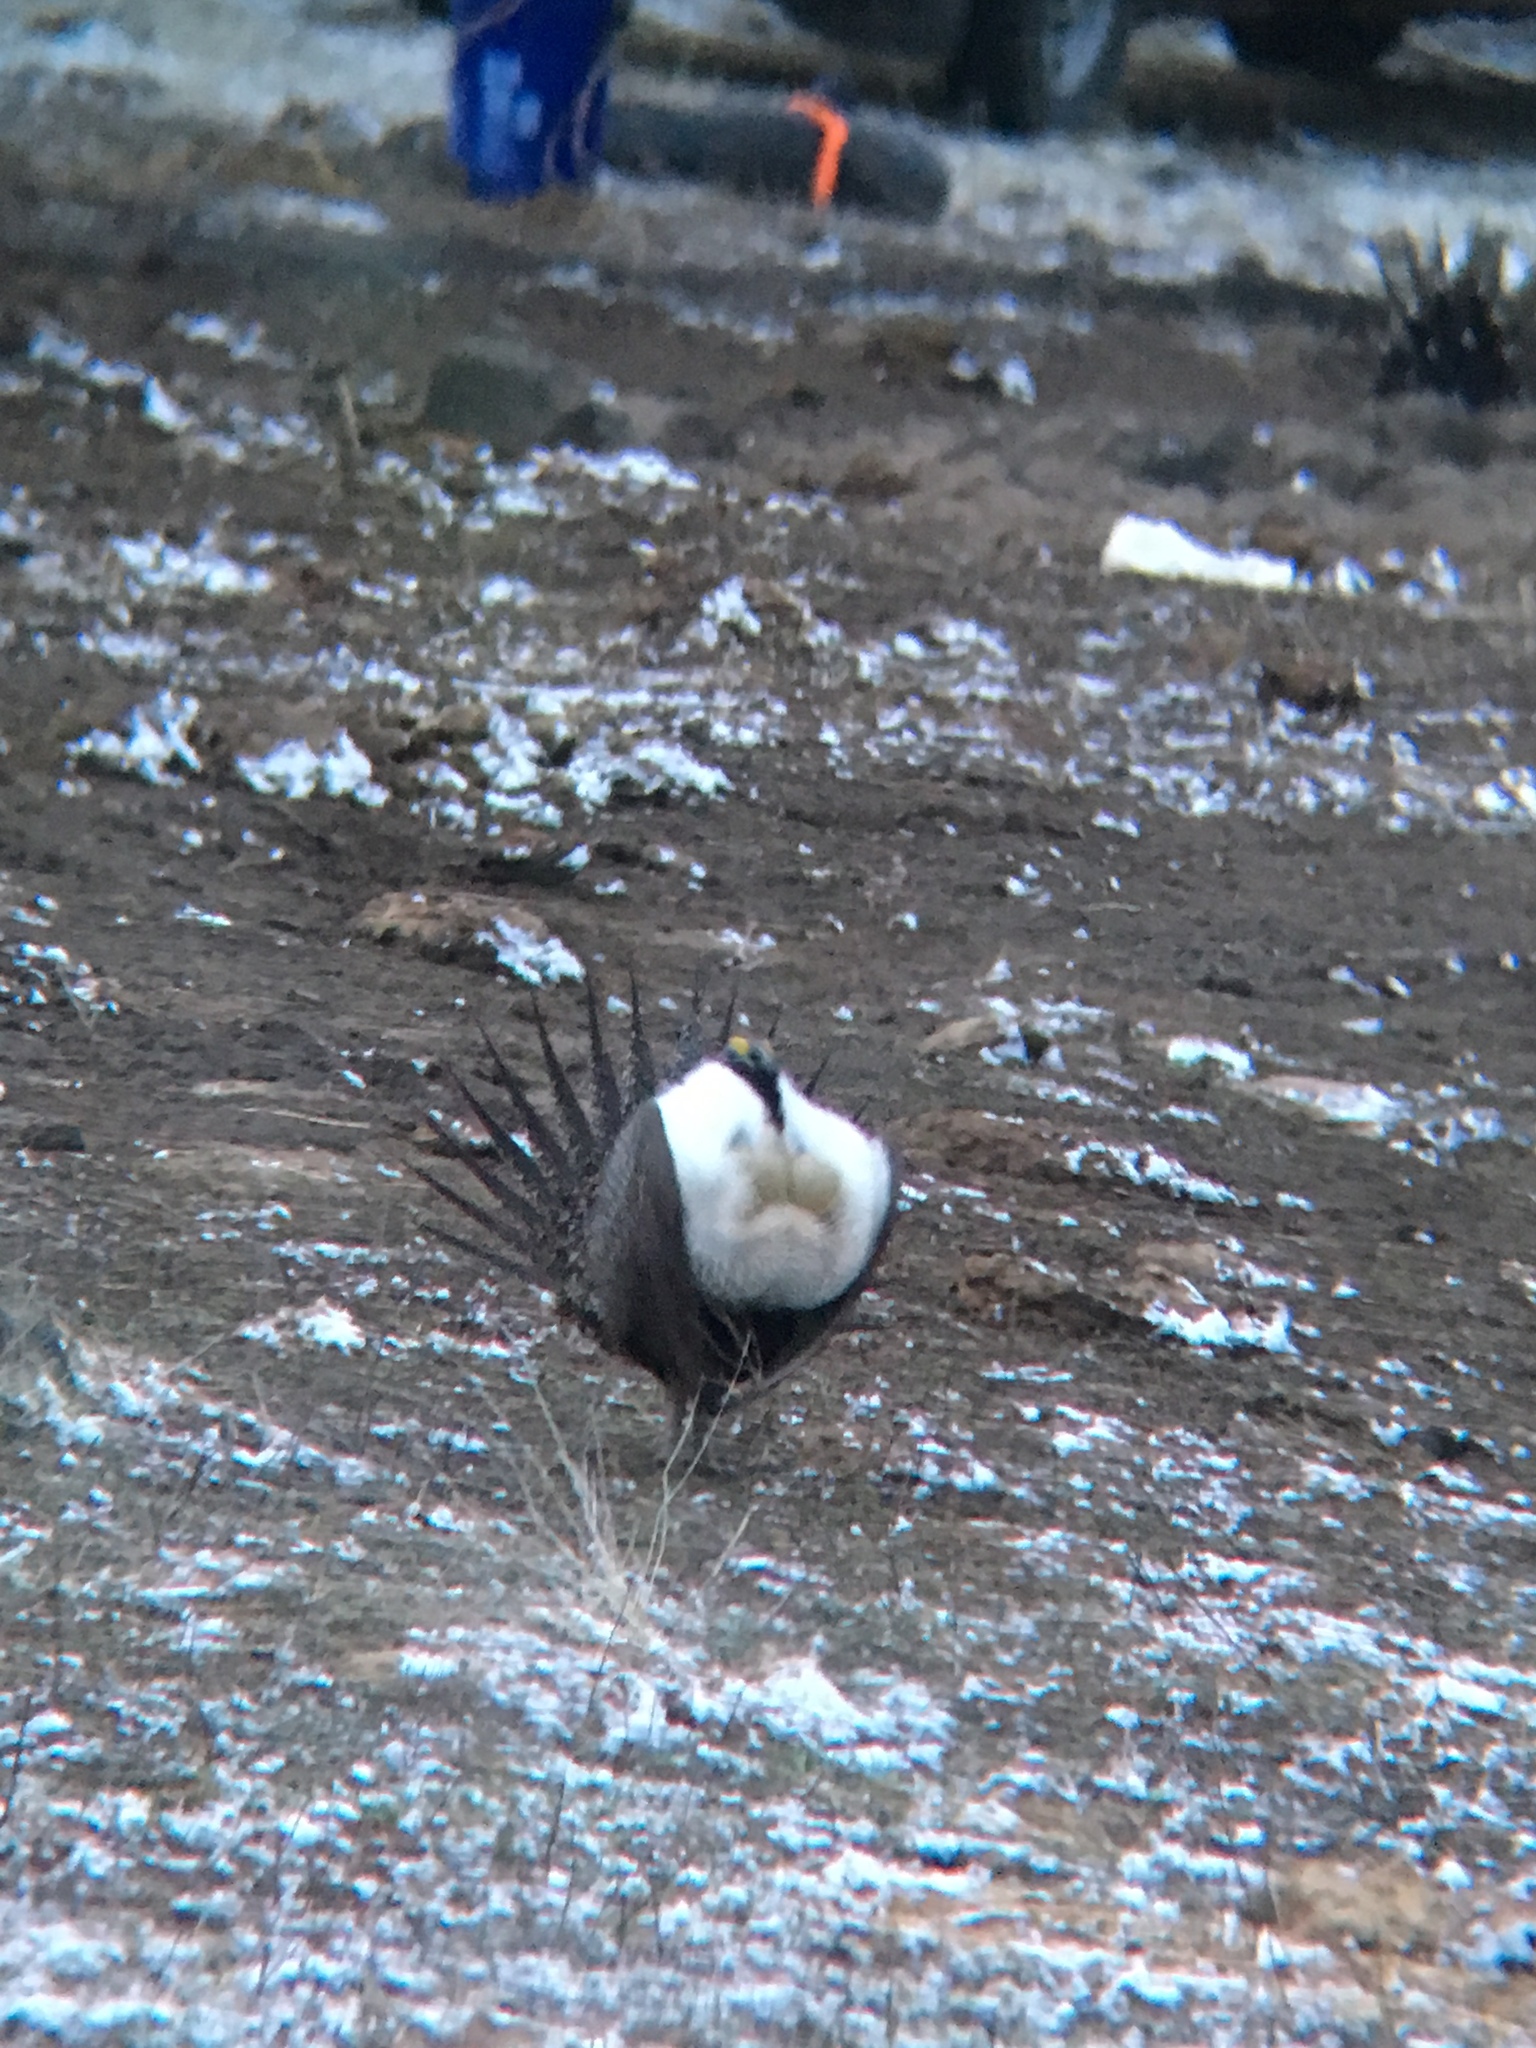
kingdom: Animalia
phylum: Chordata
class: Aves
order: Galliformes
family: Phasianidae
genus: Centrocercus
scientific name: Centrocercus urophasianus
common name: Sage grouse
